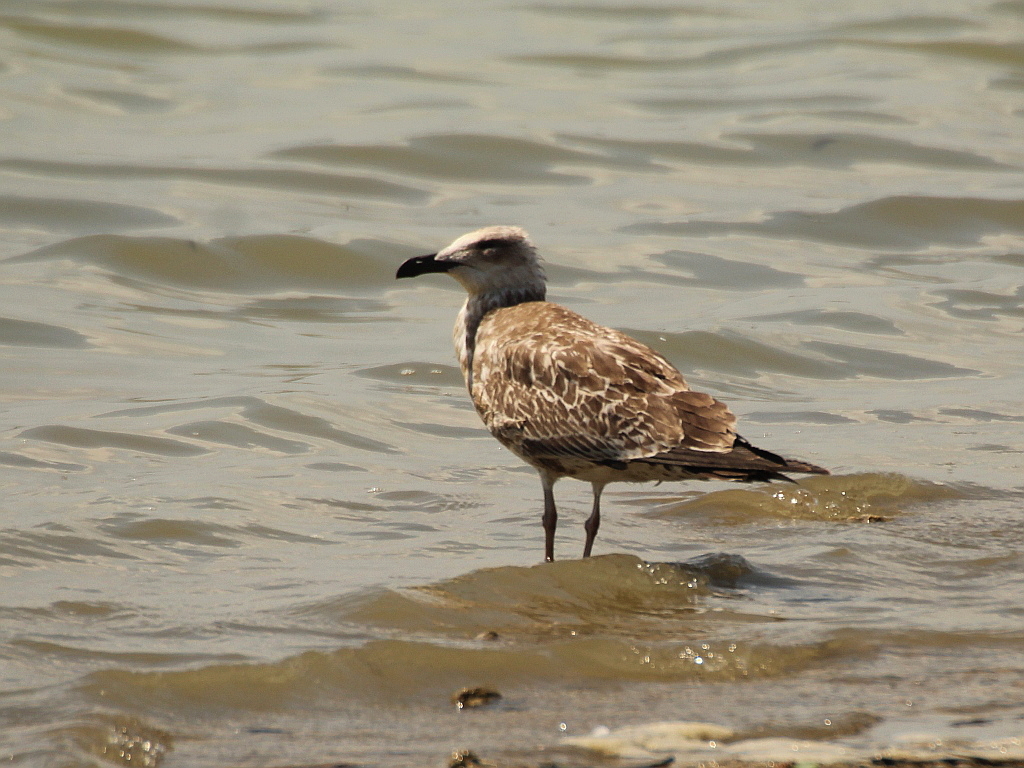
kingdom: Animalia
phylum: Chordata
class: Aves
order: Charadriiformes
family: Laridae
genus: Larus
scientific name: Larus cachinnans
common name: Caspian gull
